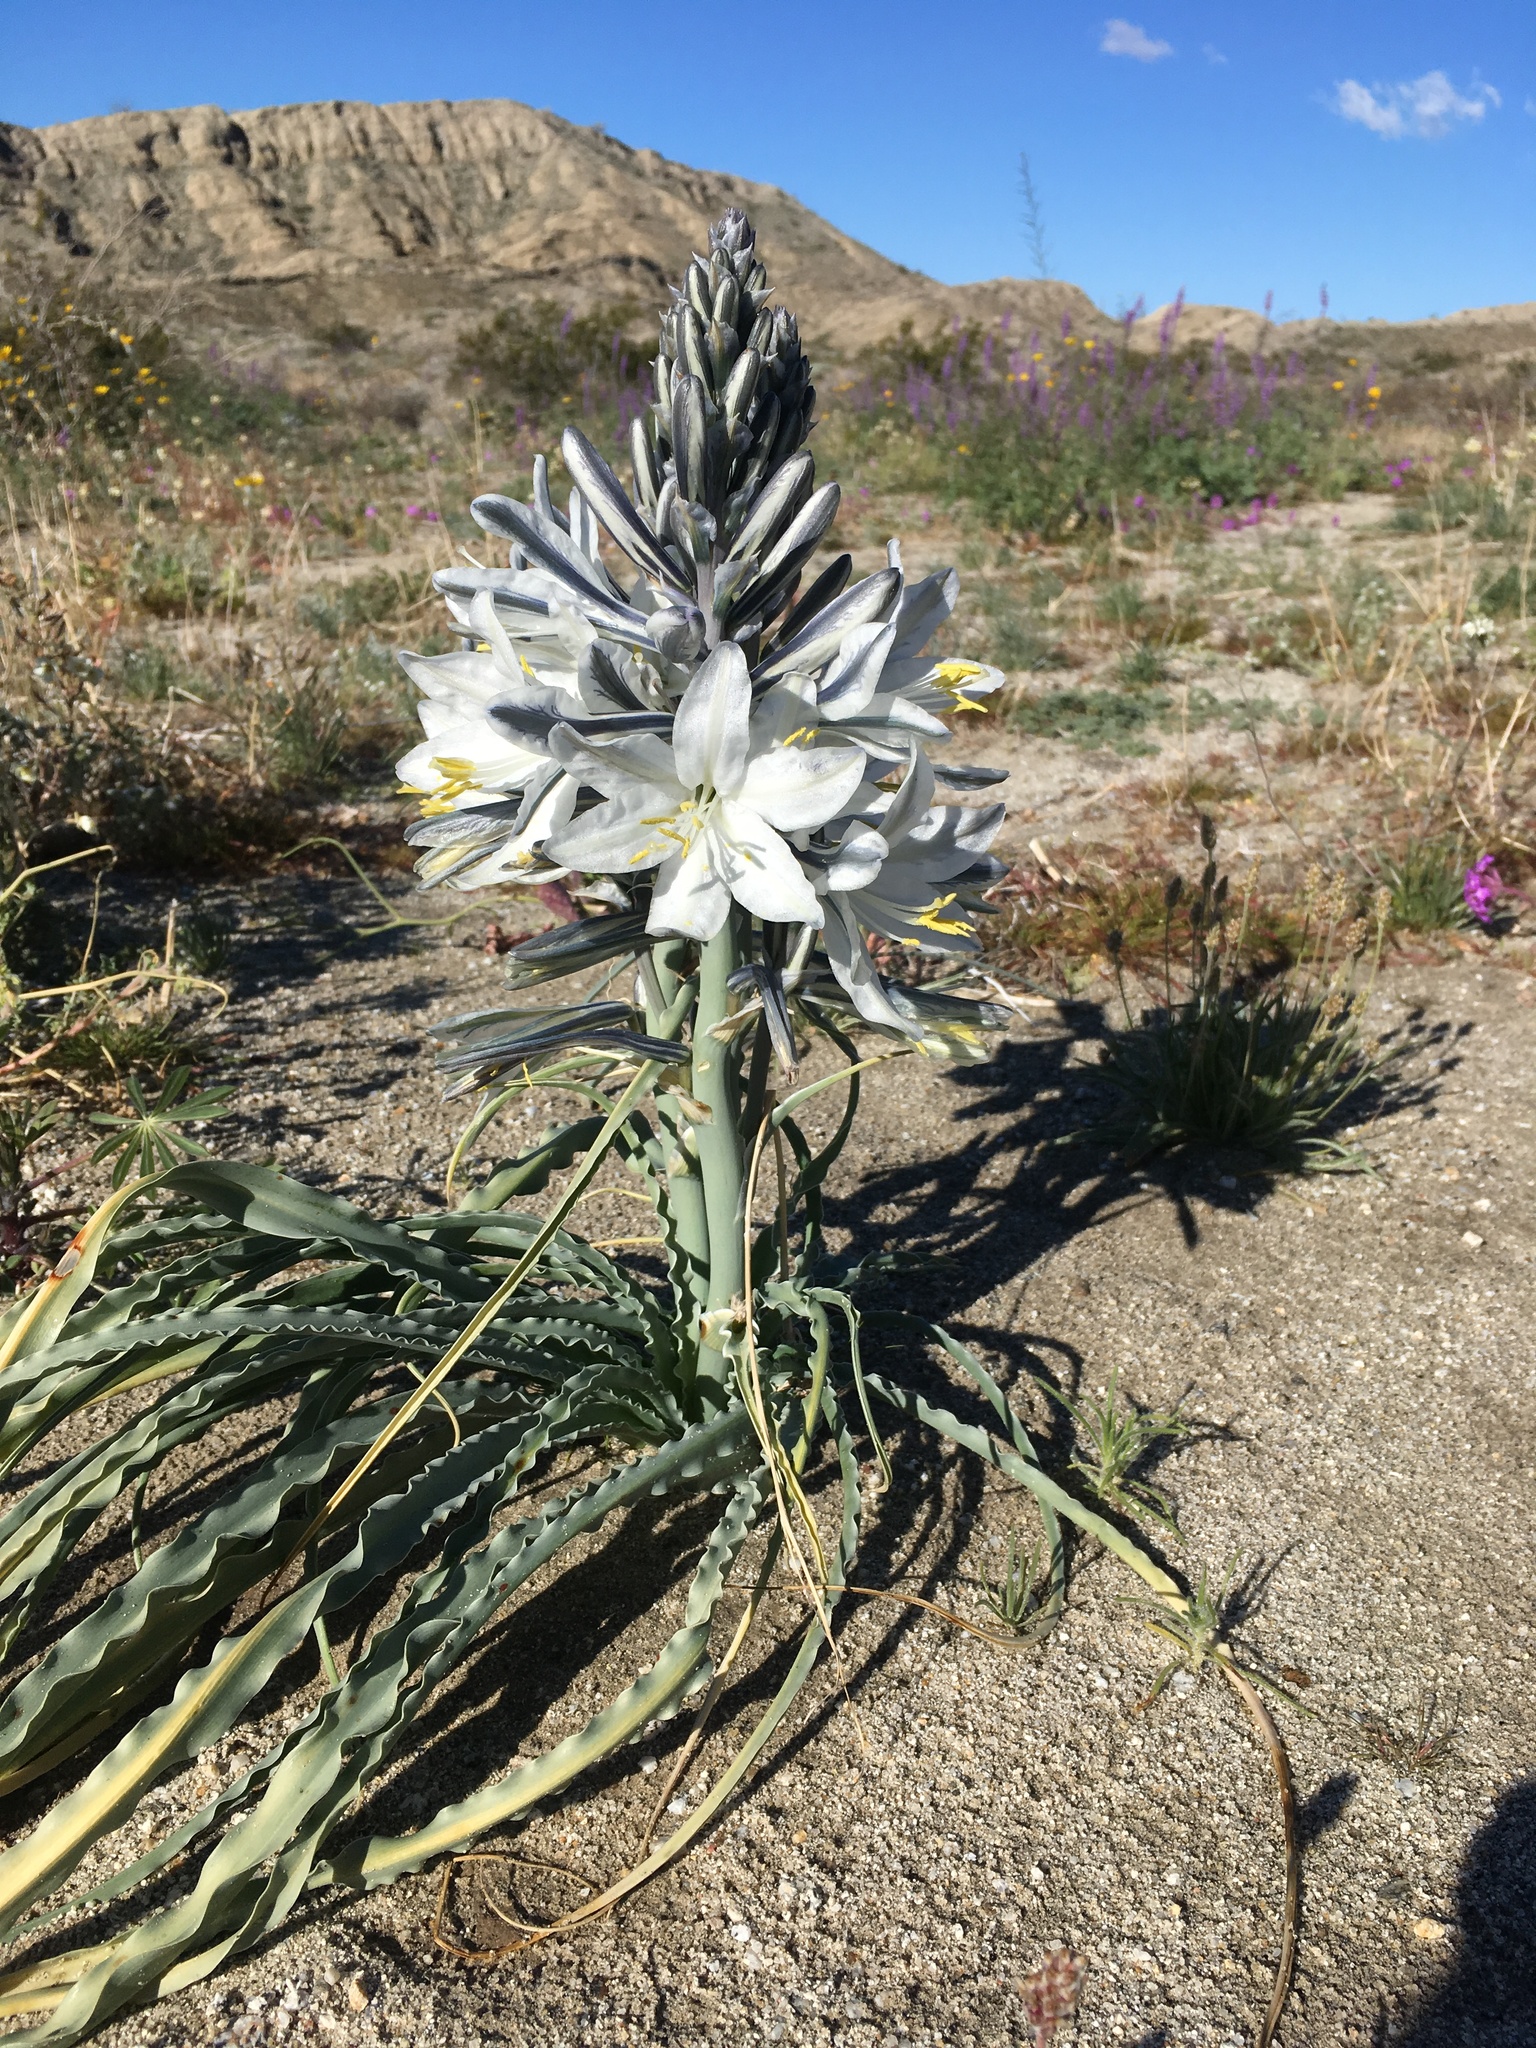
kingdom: Plantae
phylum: Tracheophyta
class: Liliopsida
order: Asparagales
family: Asparagaceae
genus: Hesperocallis
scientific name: Hesperocallis undulata
